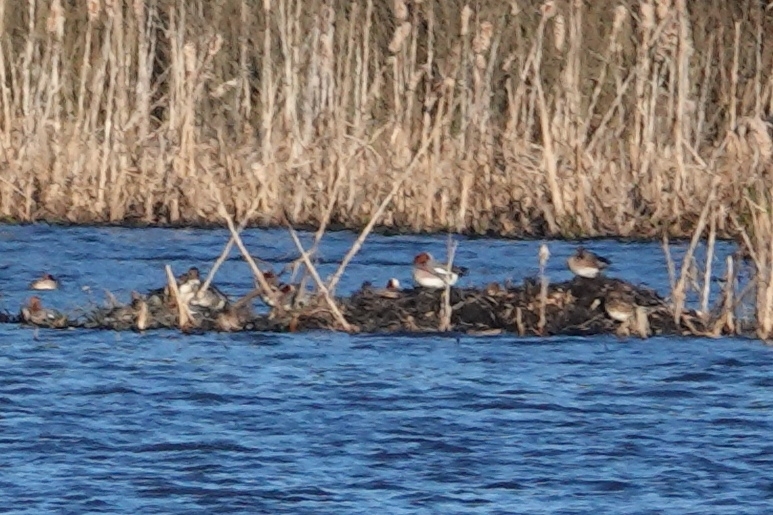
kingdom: Animalia
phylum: Chordata
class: Aves
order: Anseriformes
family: Anatidae
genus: Mareca
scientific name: Mareca penelope
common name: Eurasian wigeon
